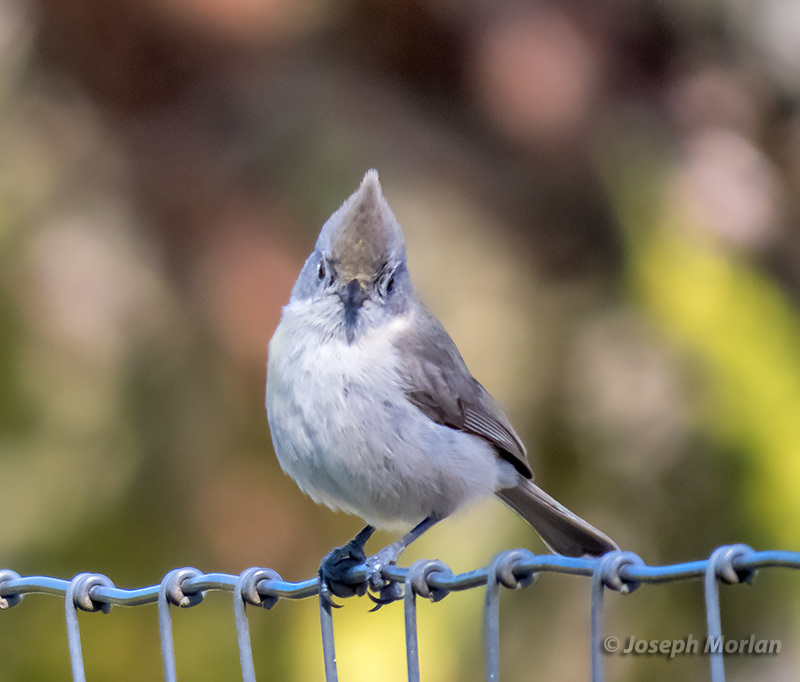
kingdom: Animalia
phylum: Chordata
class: Aves
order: Passeriformes
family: Paridae
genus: Baeolophus
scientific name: Baeolophus inornatus
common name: Oak titmouse
